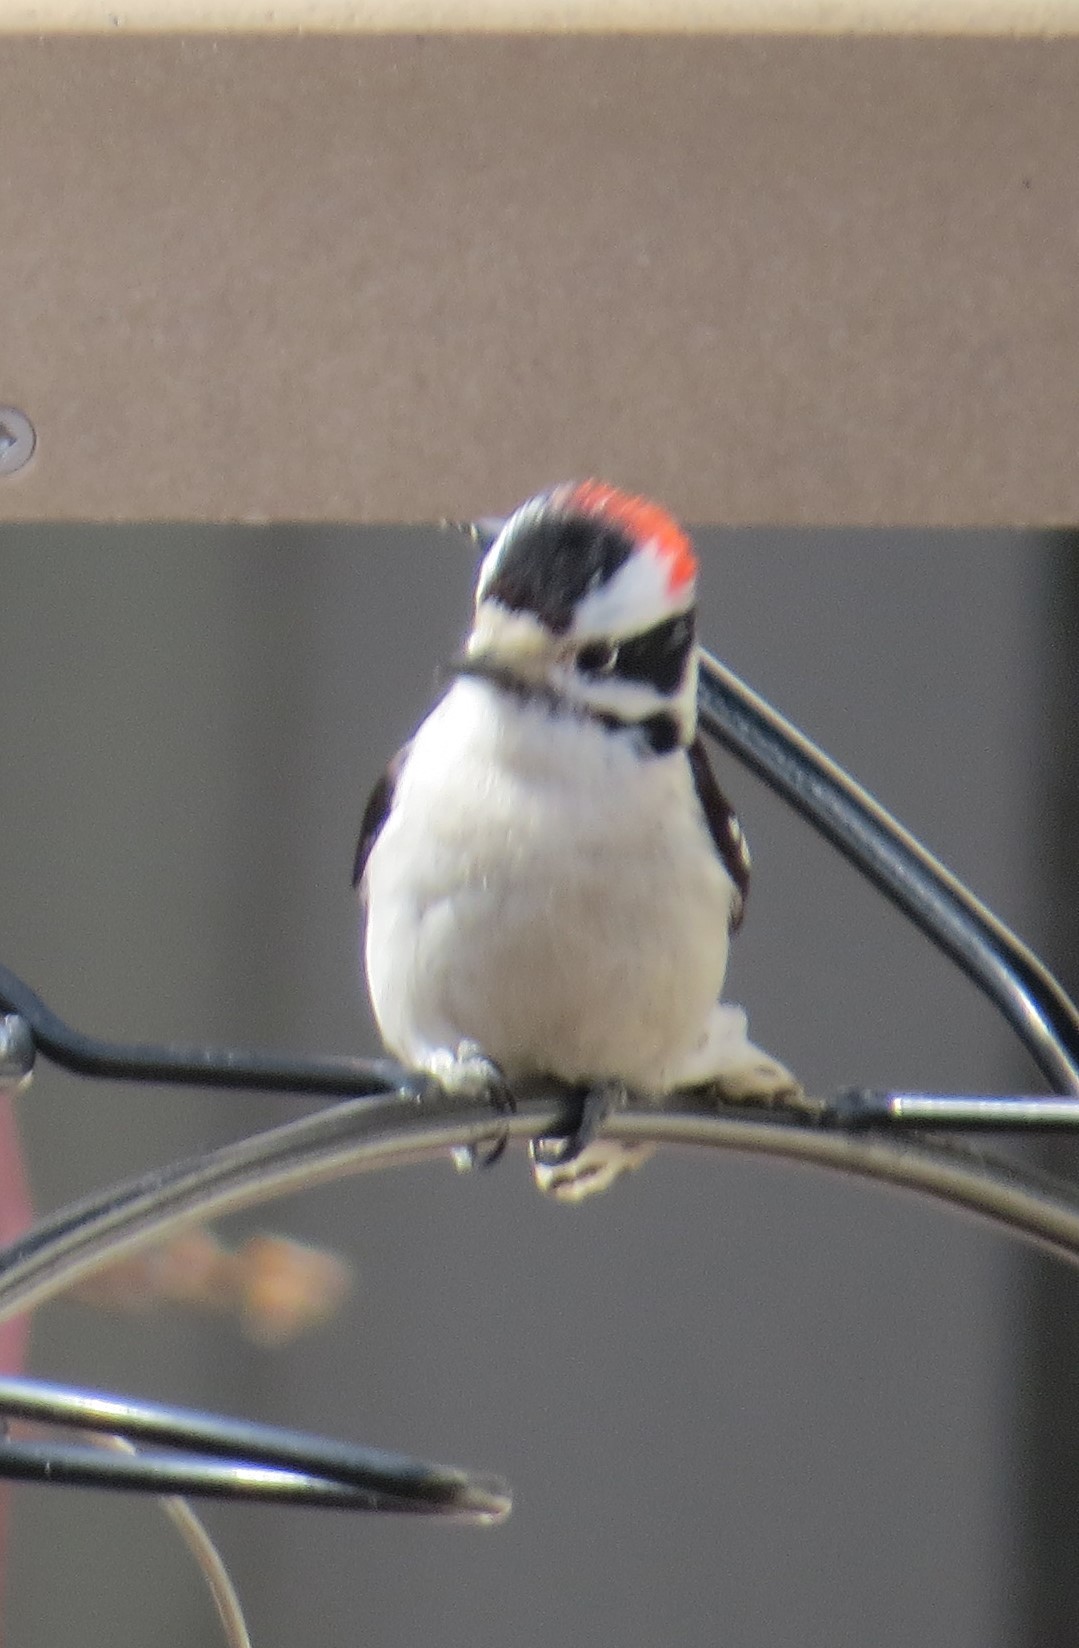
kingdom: Animalia
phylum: Chordata
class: Aves
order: Piciformes
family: Picidae
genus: Dryobates
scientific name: Dryobates pubescens
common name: Downy woodpecker
